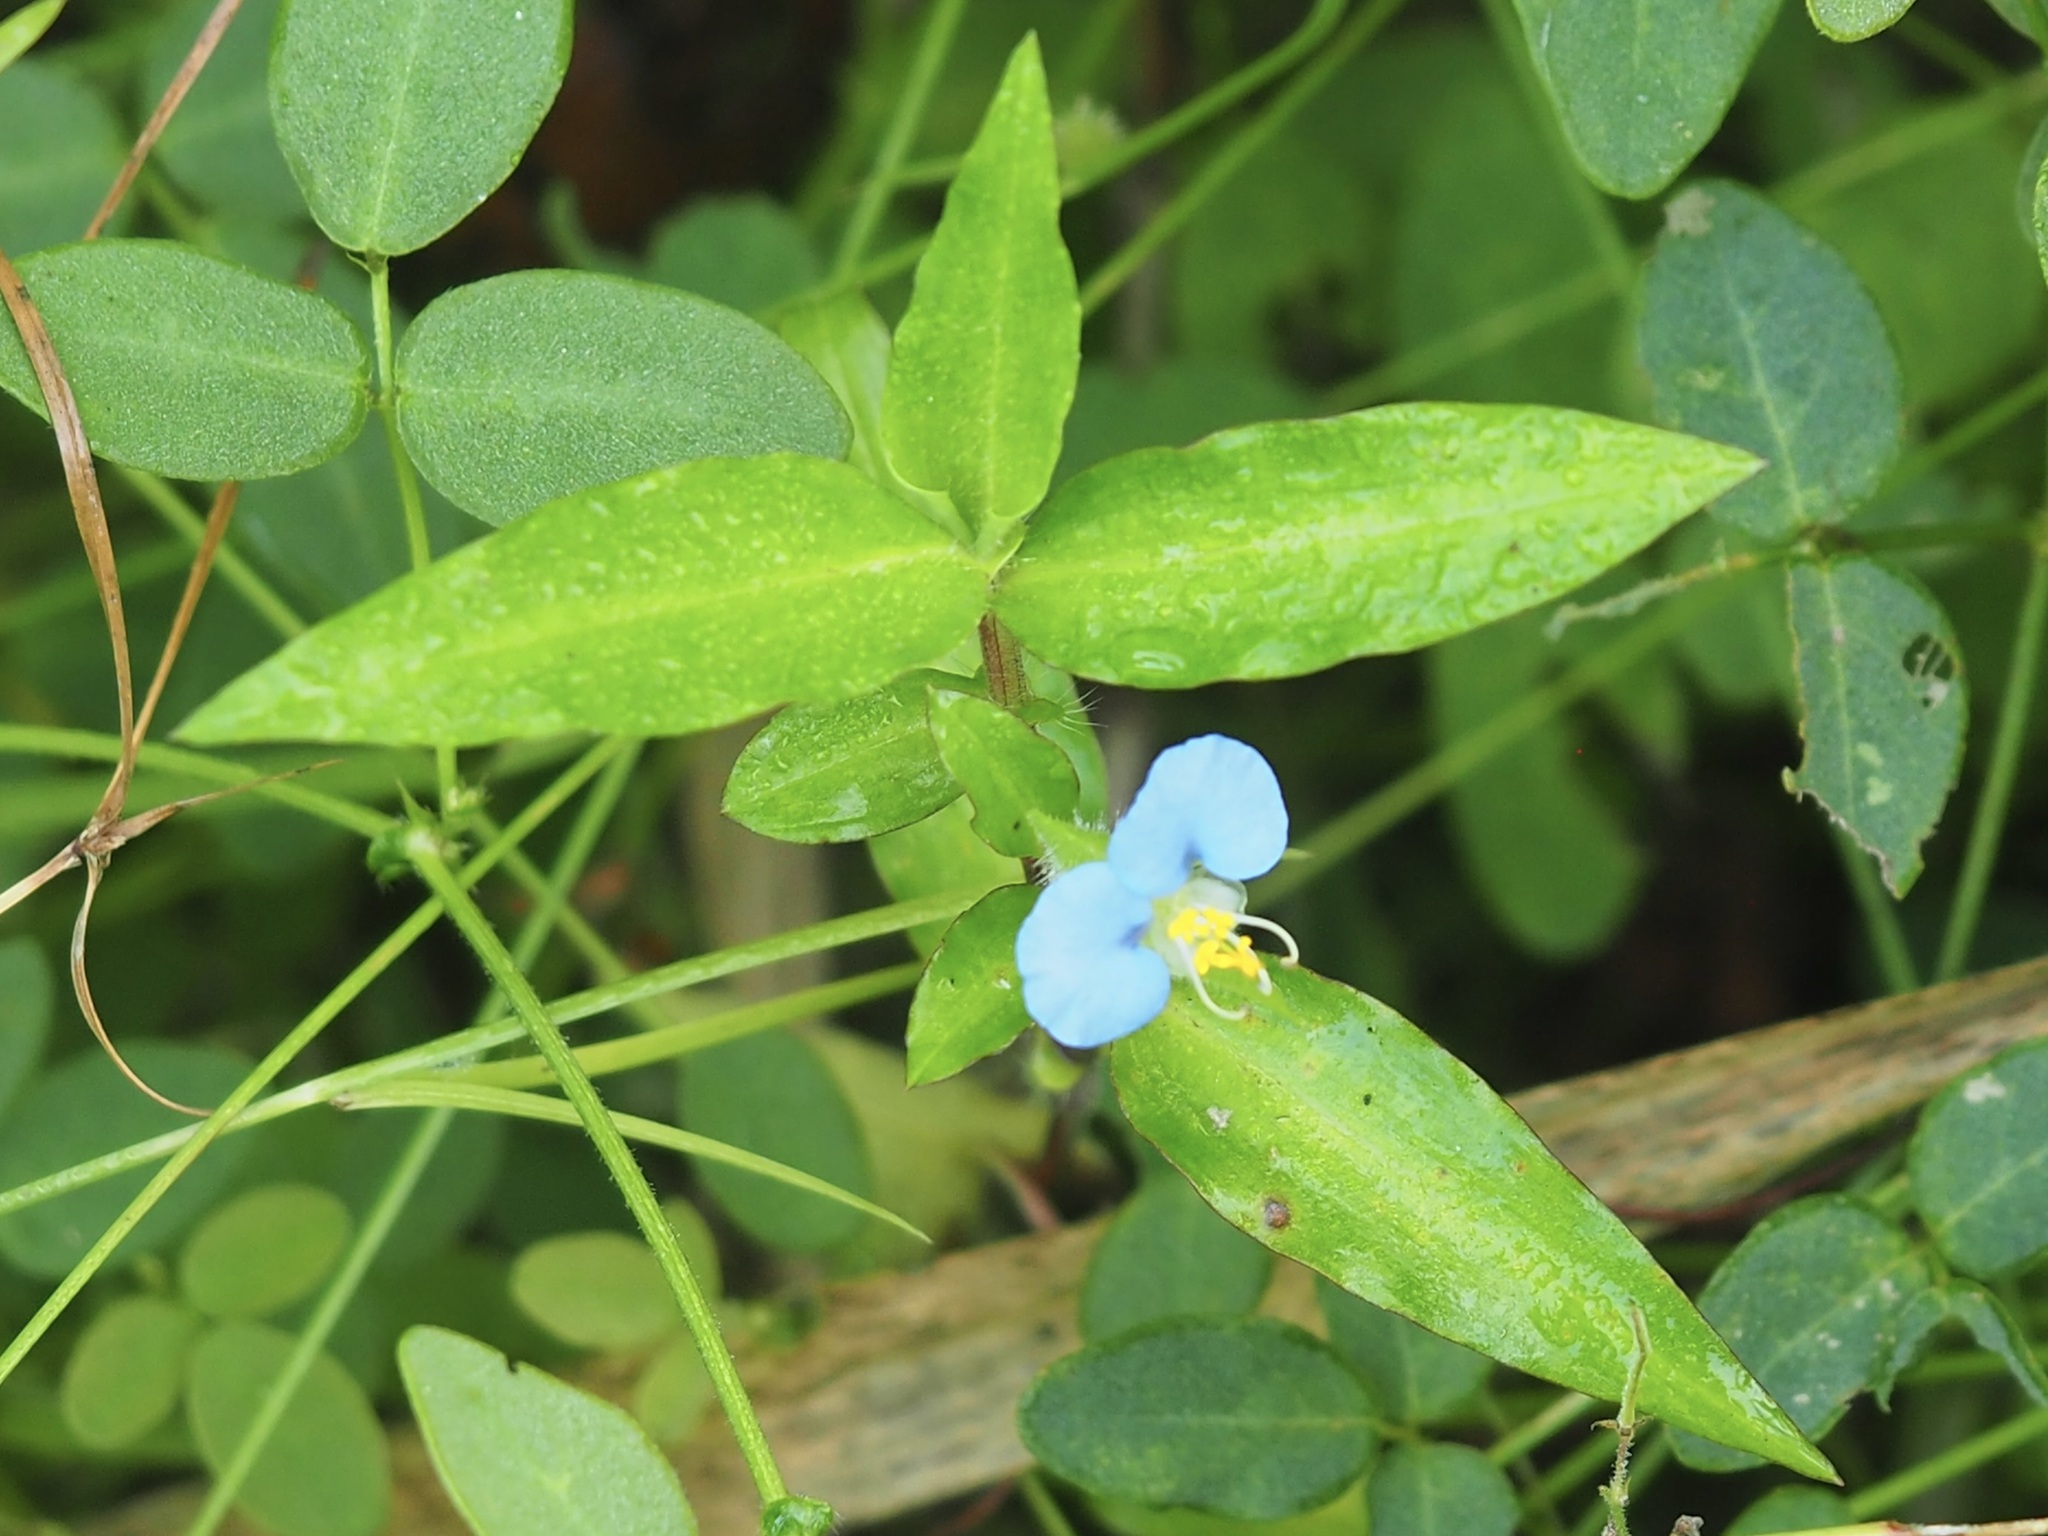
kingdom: Plantae
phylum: Tracheophyta
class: Liliopsida
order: Commelinales
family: Commelinaceae
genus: Commelina
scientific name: Commelina erecta
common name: Blousel blommetjie
